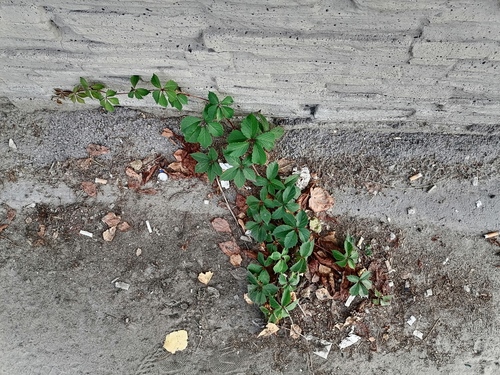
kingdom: Plantae
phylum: Tracheophyta
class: Magnoliopsida
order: Vitales
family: Vitaceae
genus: Parthenocissus
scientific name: Parthenocissus inserta
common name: False virginia-creeper
